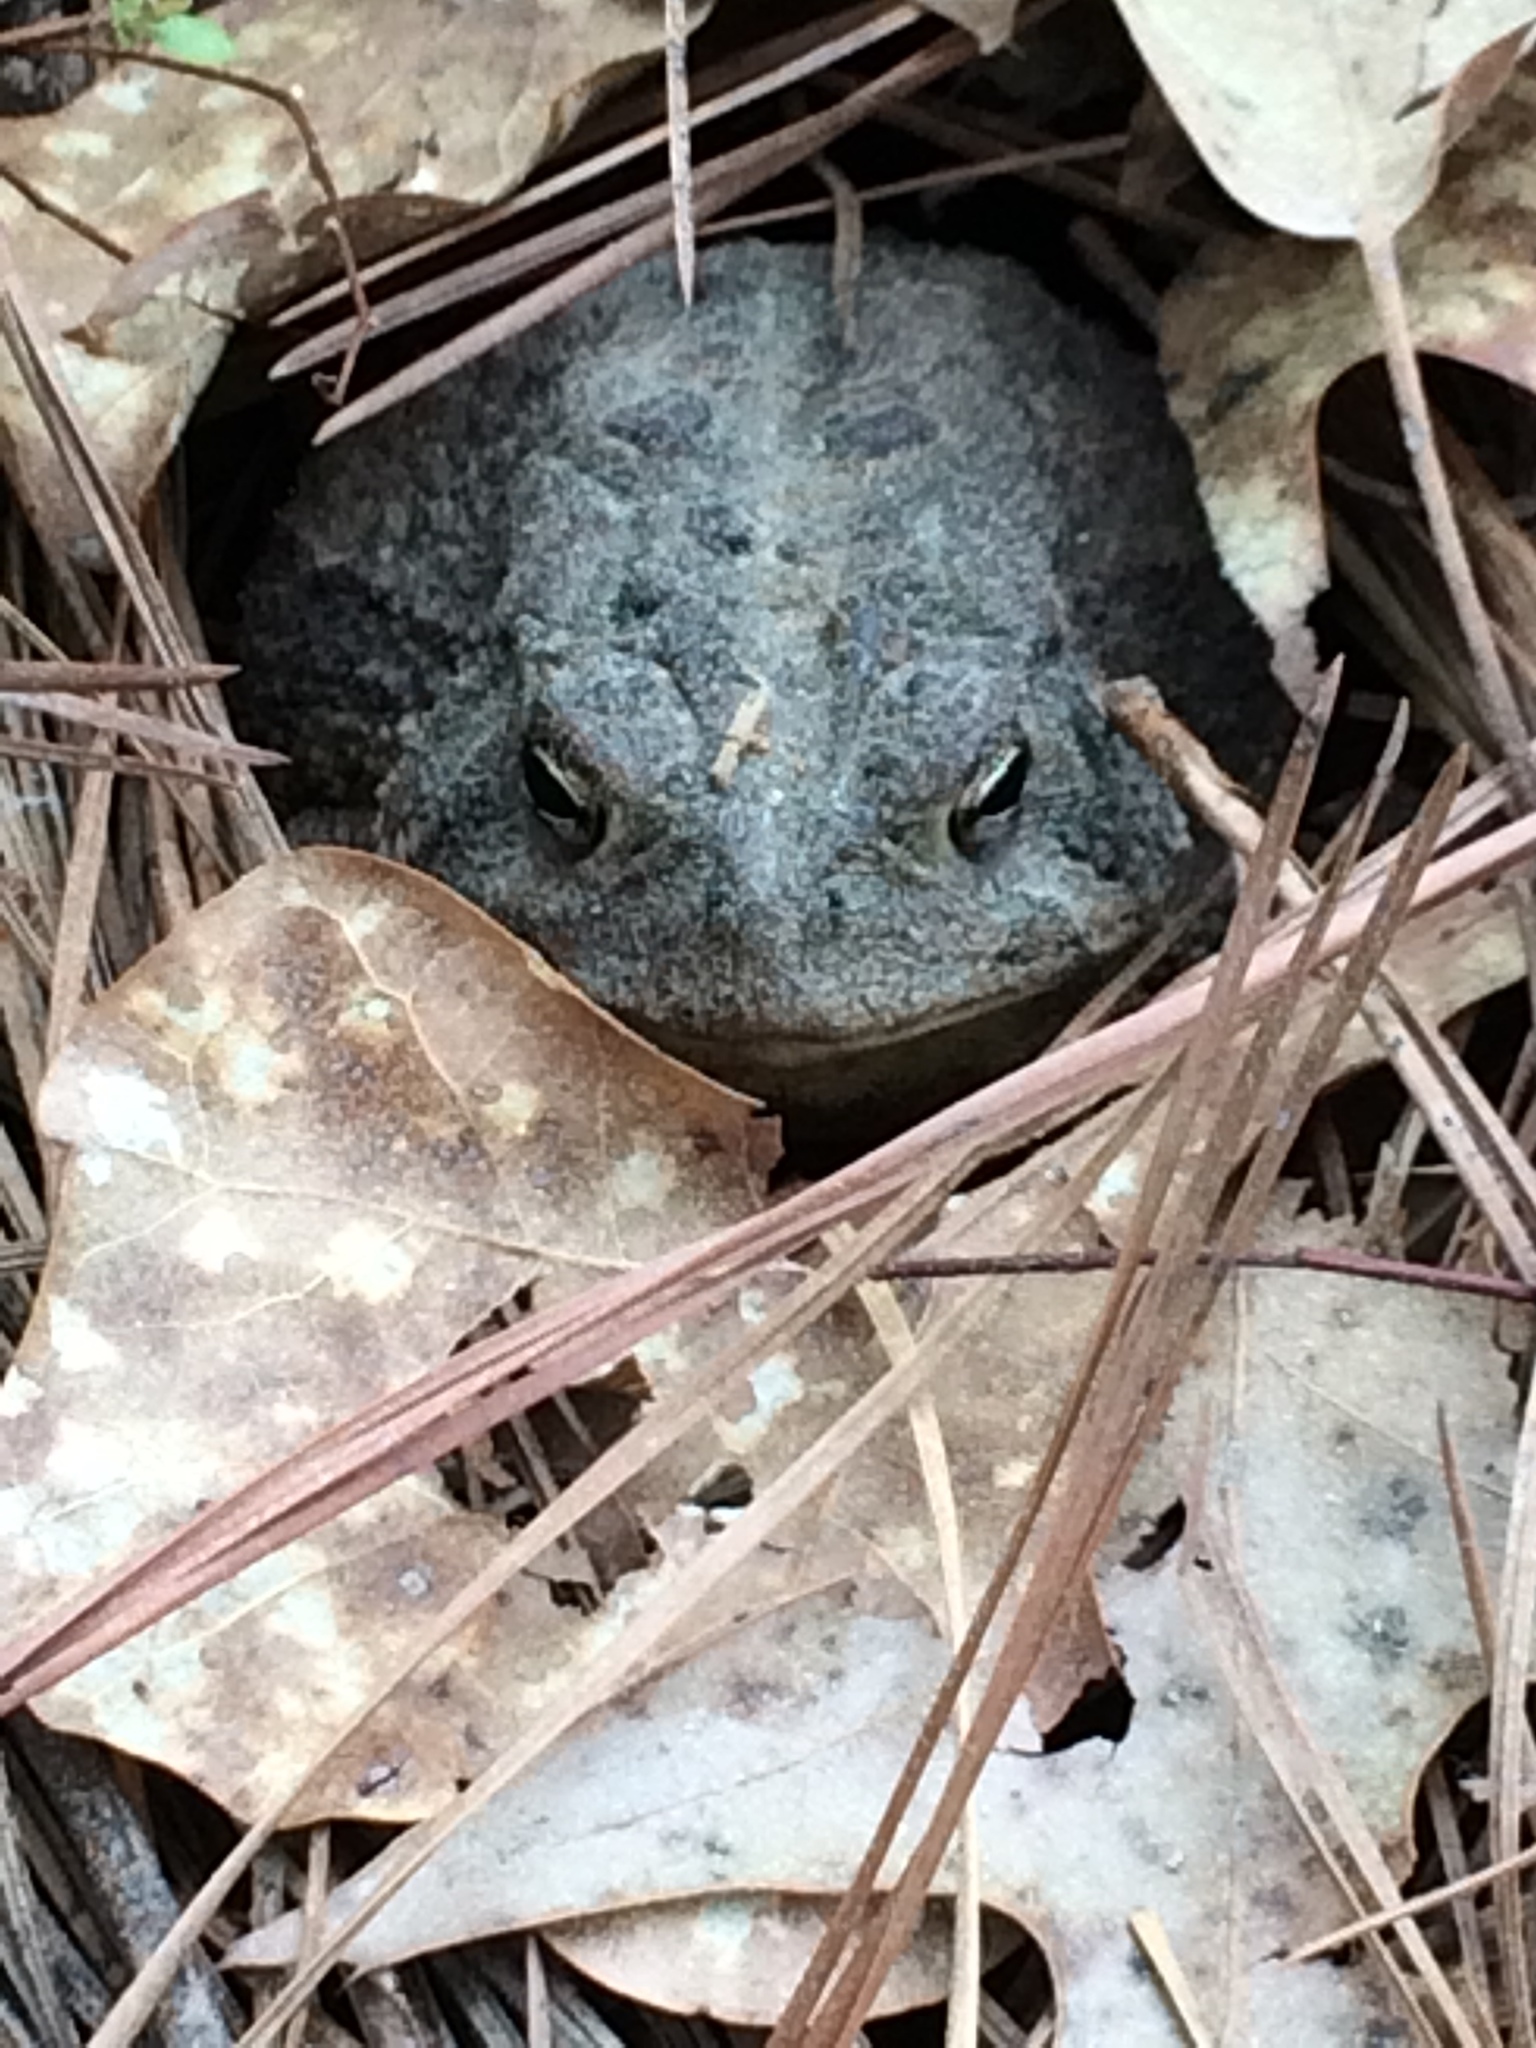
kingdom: Animalia
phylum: Chordata
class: Amphibia
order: Anura
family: Bufonidae
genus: Anaxyrus
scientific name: Anaxyrus terrestris
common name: Southern toad
